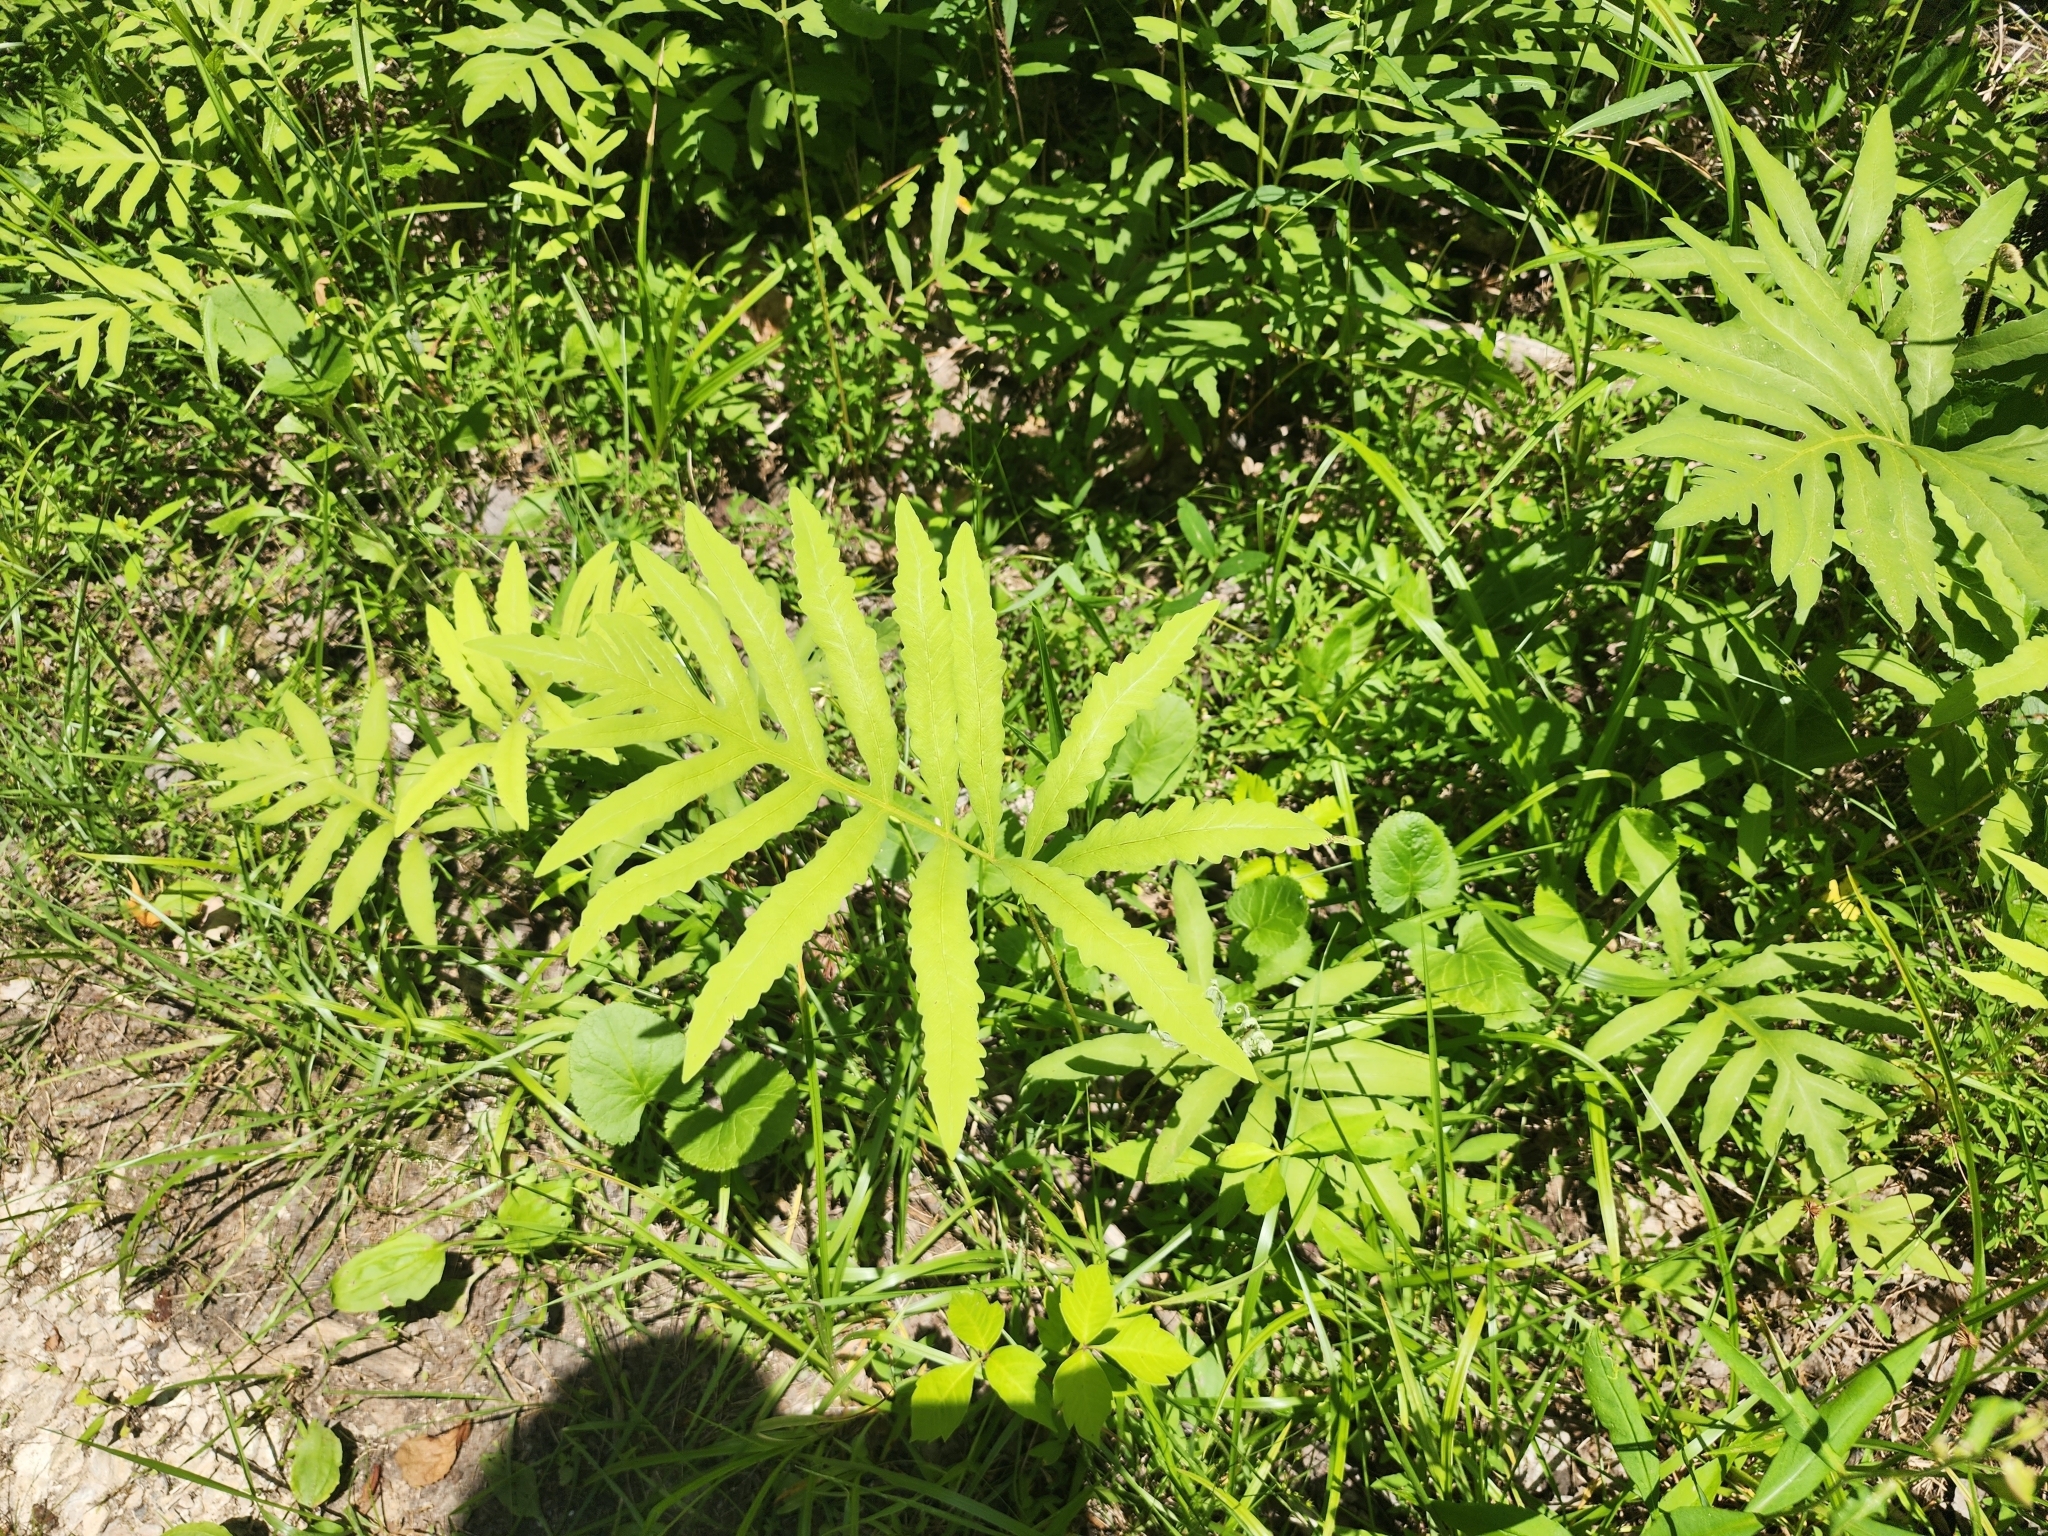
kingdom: Plantae
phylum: Tracheophyta
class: Polypodiopsida
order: Polypodiales
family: Onocleaceae
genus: Onoclea
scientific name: Onoclea sensibilis
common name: Sensitive fern
